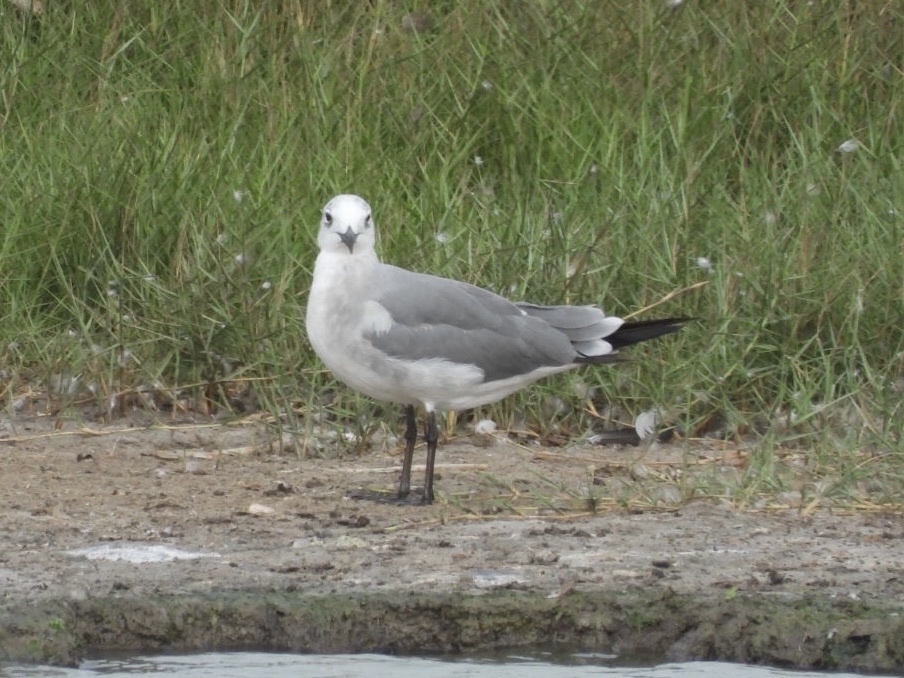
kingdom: Animalia
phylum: Chordata
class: Aves
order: Charadriiformes
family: Laridae
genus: Leucophaeus
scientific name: Leucophaeus atricilla
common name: Laughing gull
